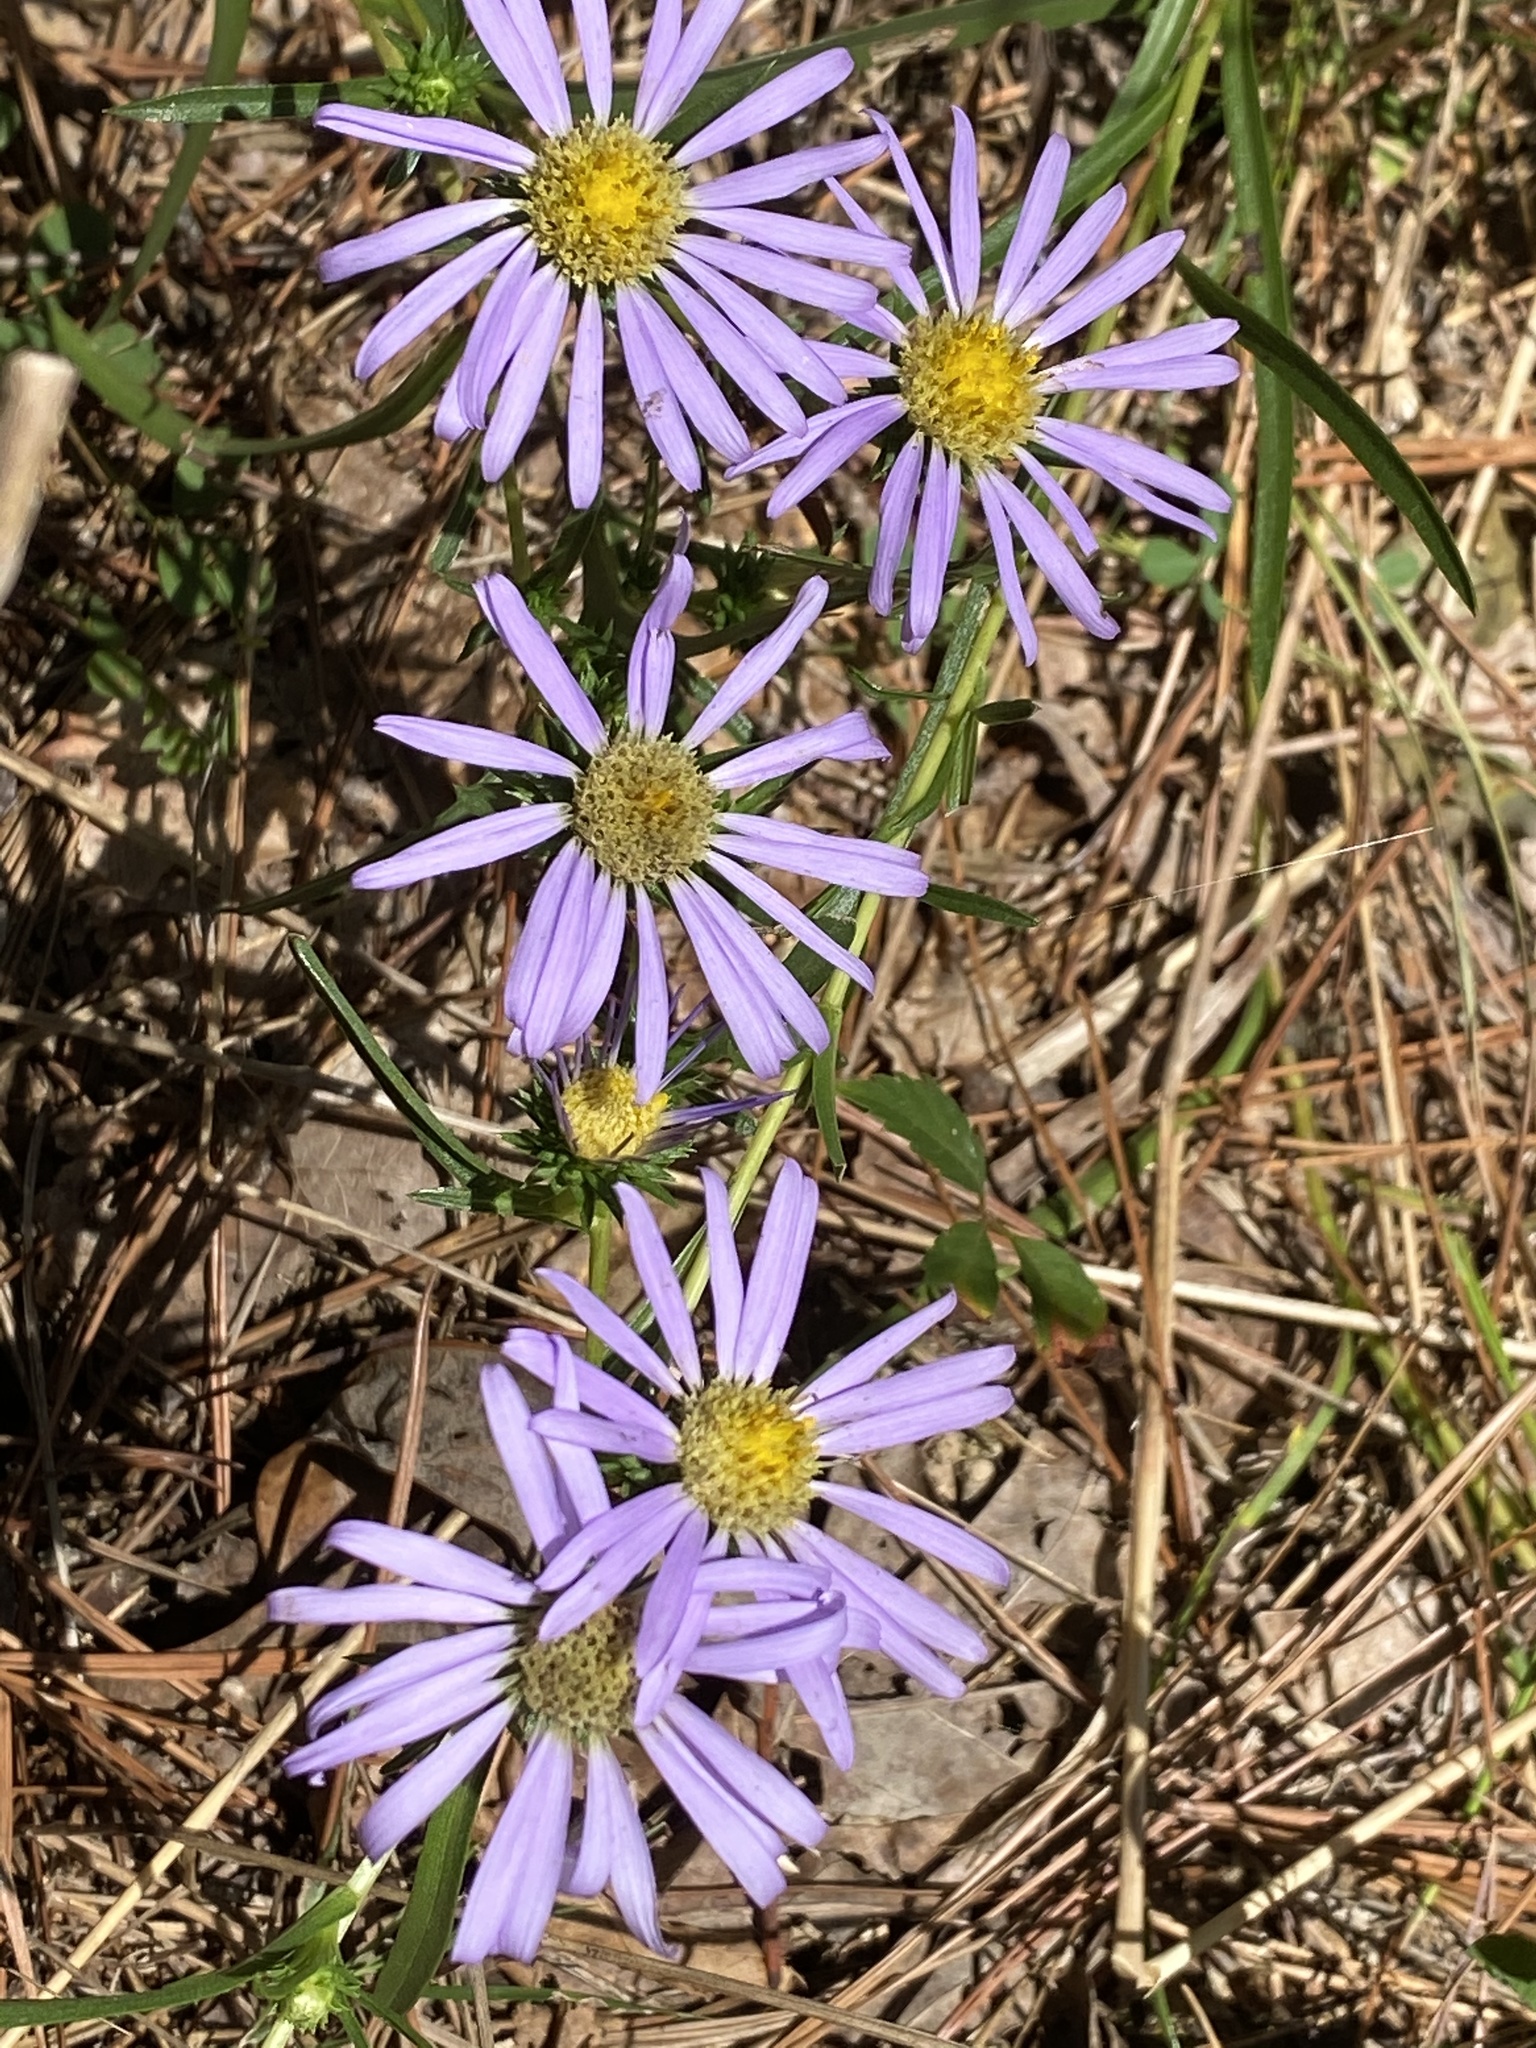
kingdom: Plantae
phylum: Tracheophyta
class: Magnoliopsida
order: Asterales
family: Asteraceae
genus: Eurybia
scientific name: Eurybia hemispherica
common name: Showy aster
